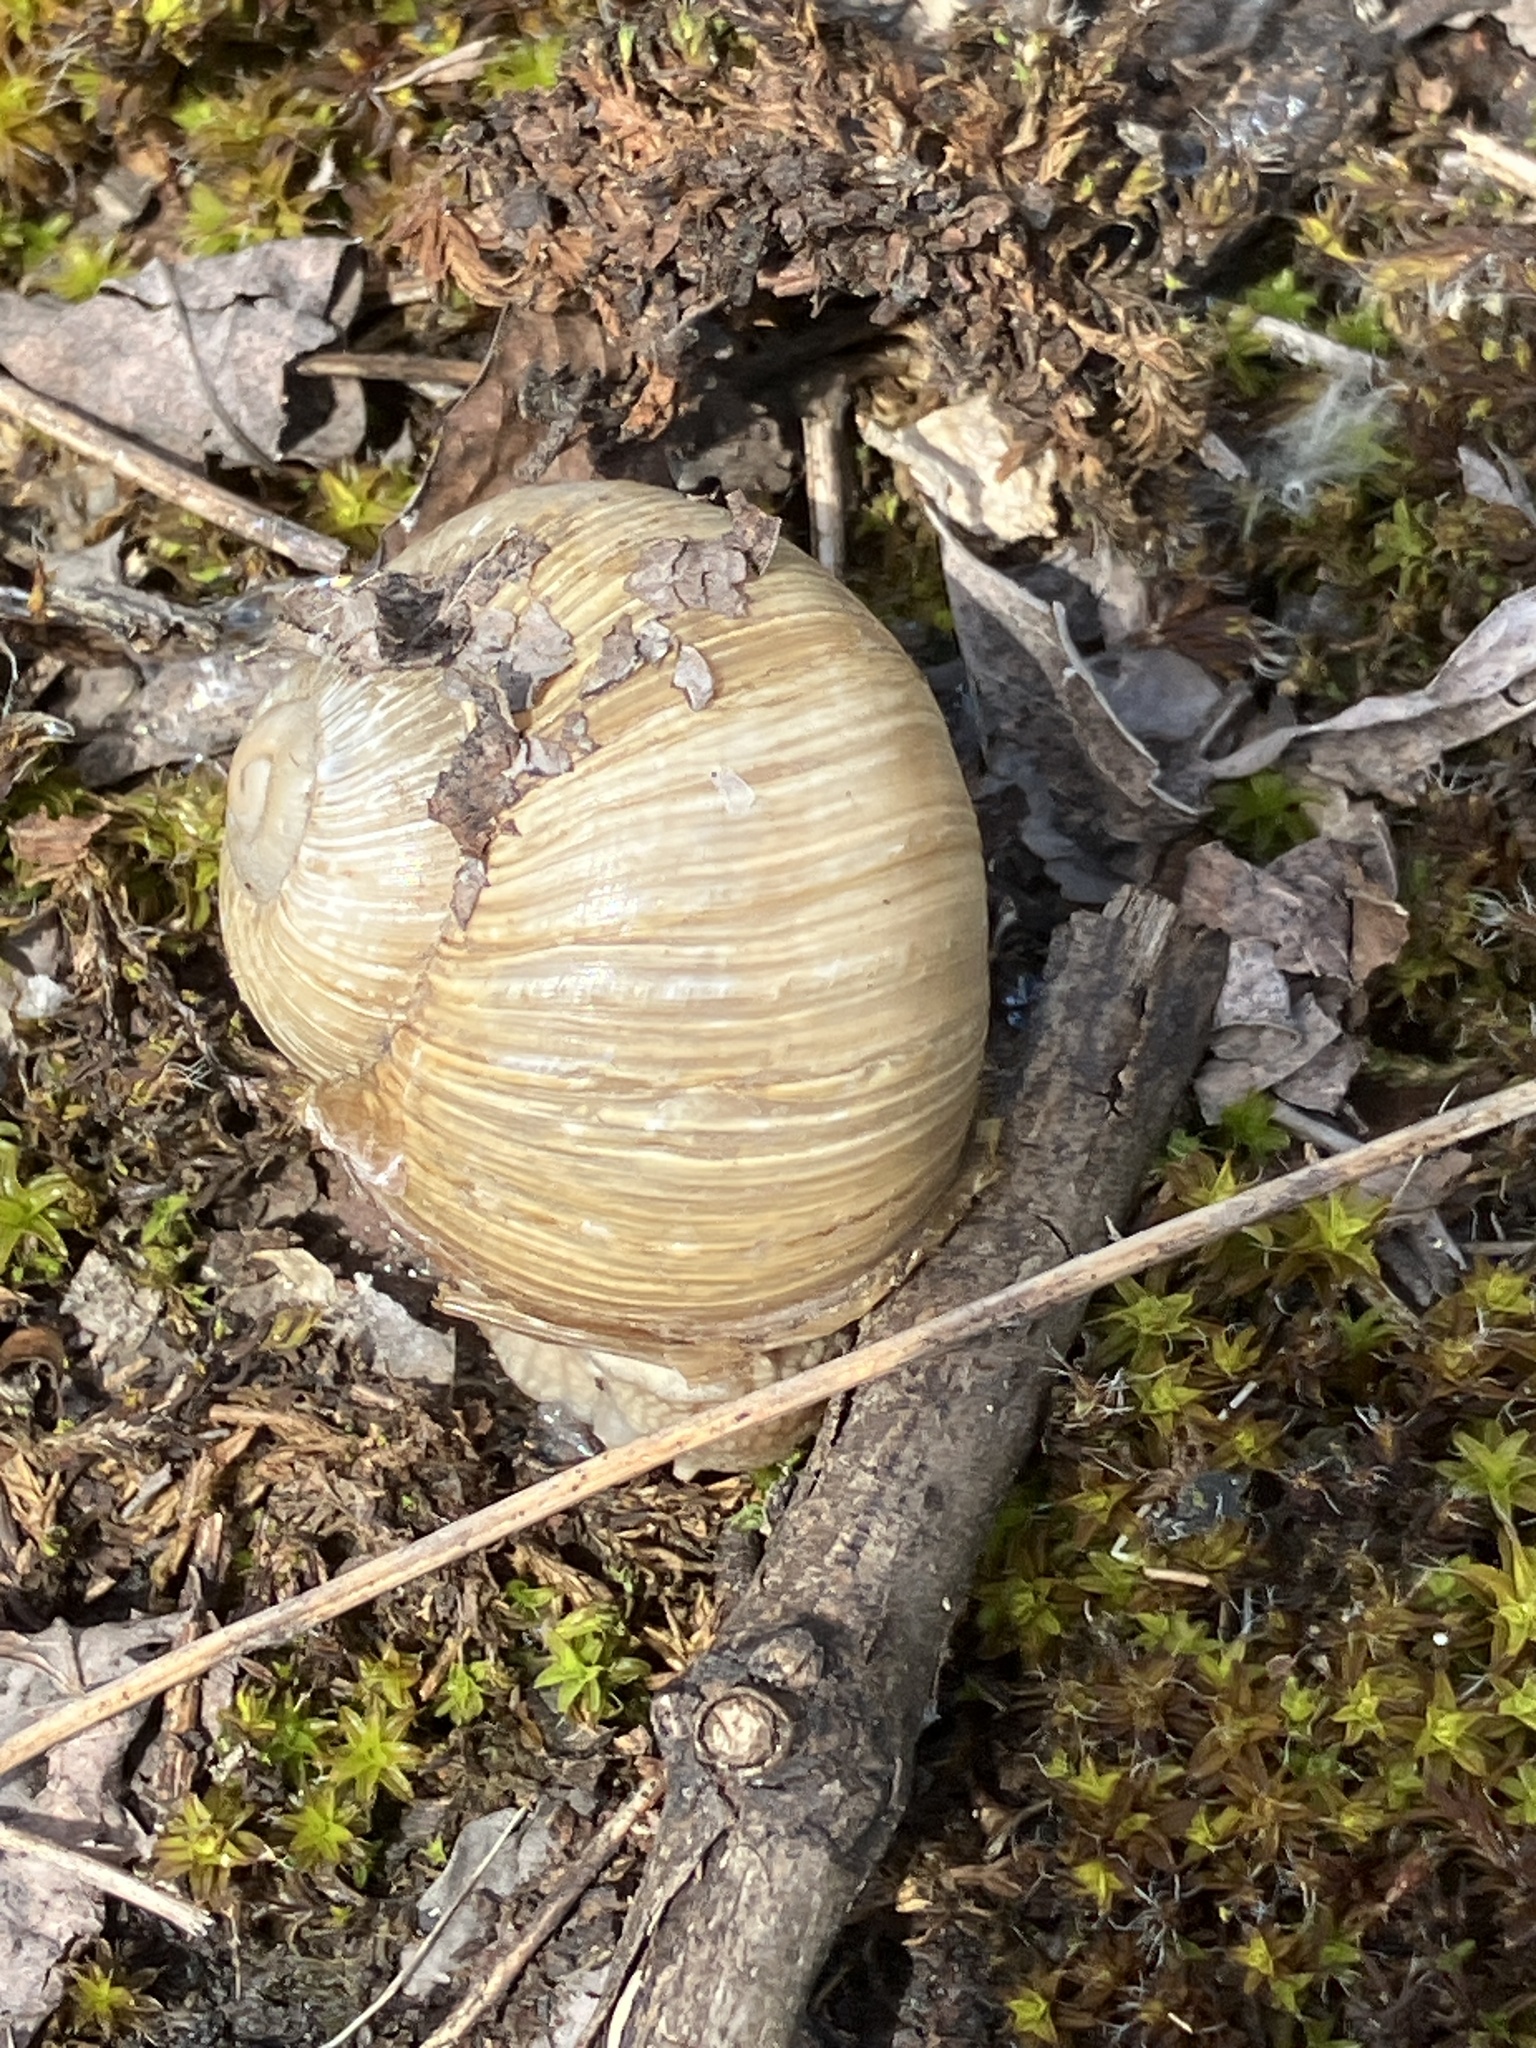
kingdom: Animalia
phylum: Mollusca
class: Gastropoda
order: Stylommatophora
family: Helicidae
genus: Helix
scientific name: Helix pomatia
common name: Roman snail
